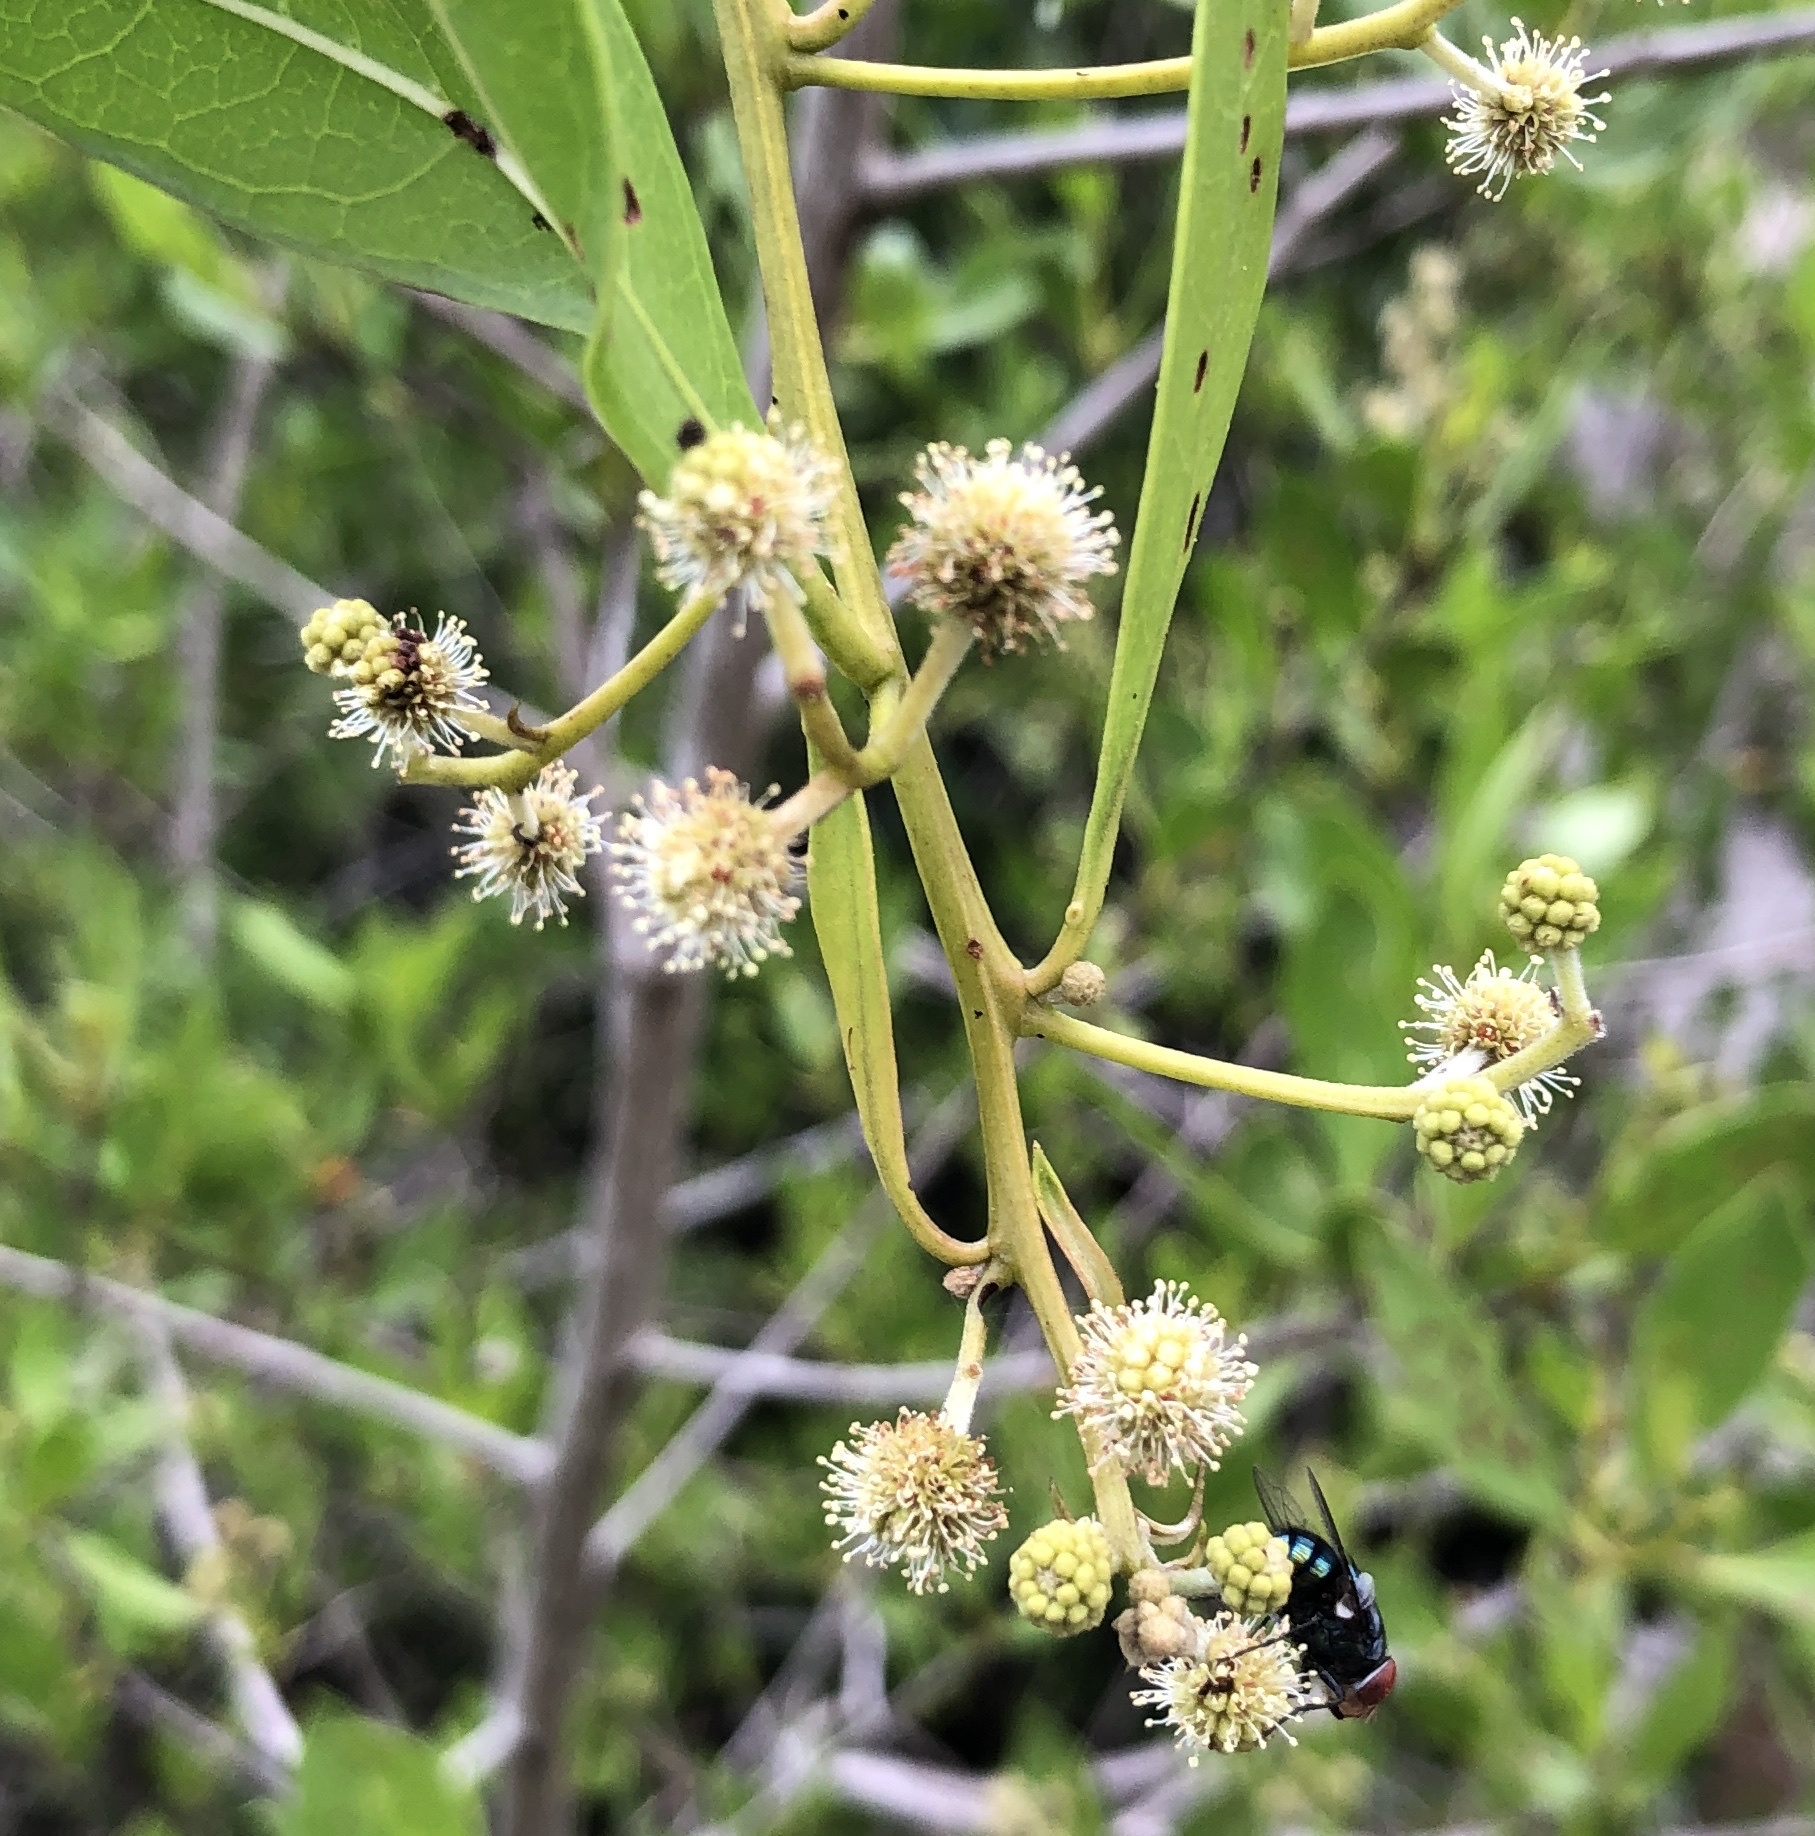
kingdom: Plantae
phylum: Tracheophyta
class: Magnoliopsida
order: Myrtales
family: Combretaceae
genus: Conocarpus
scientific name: Conocarpus erectus
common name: Button mangrove
